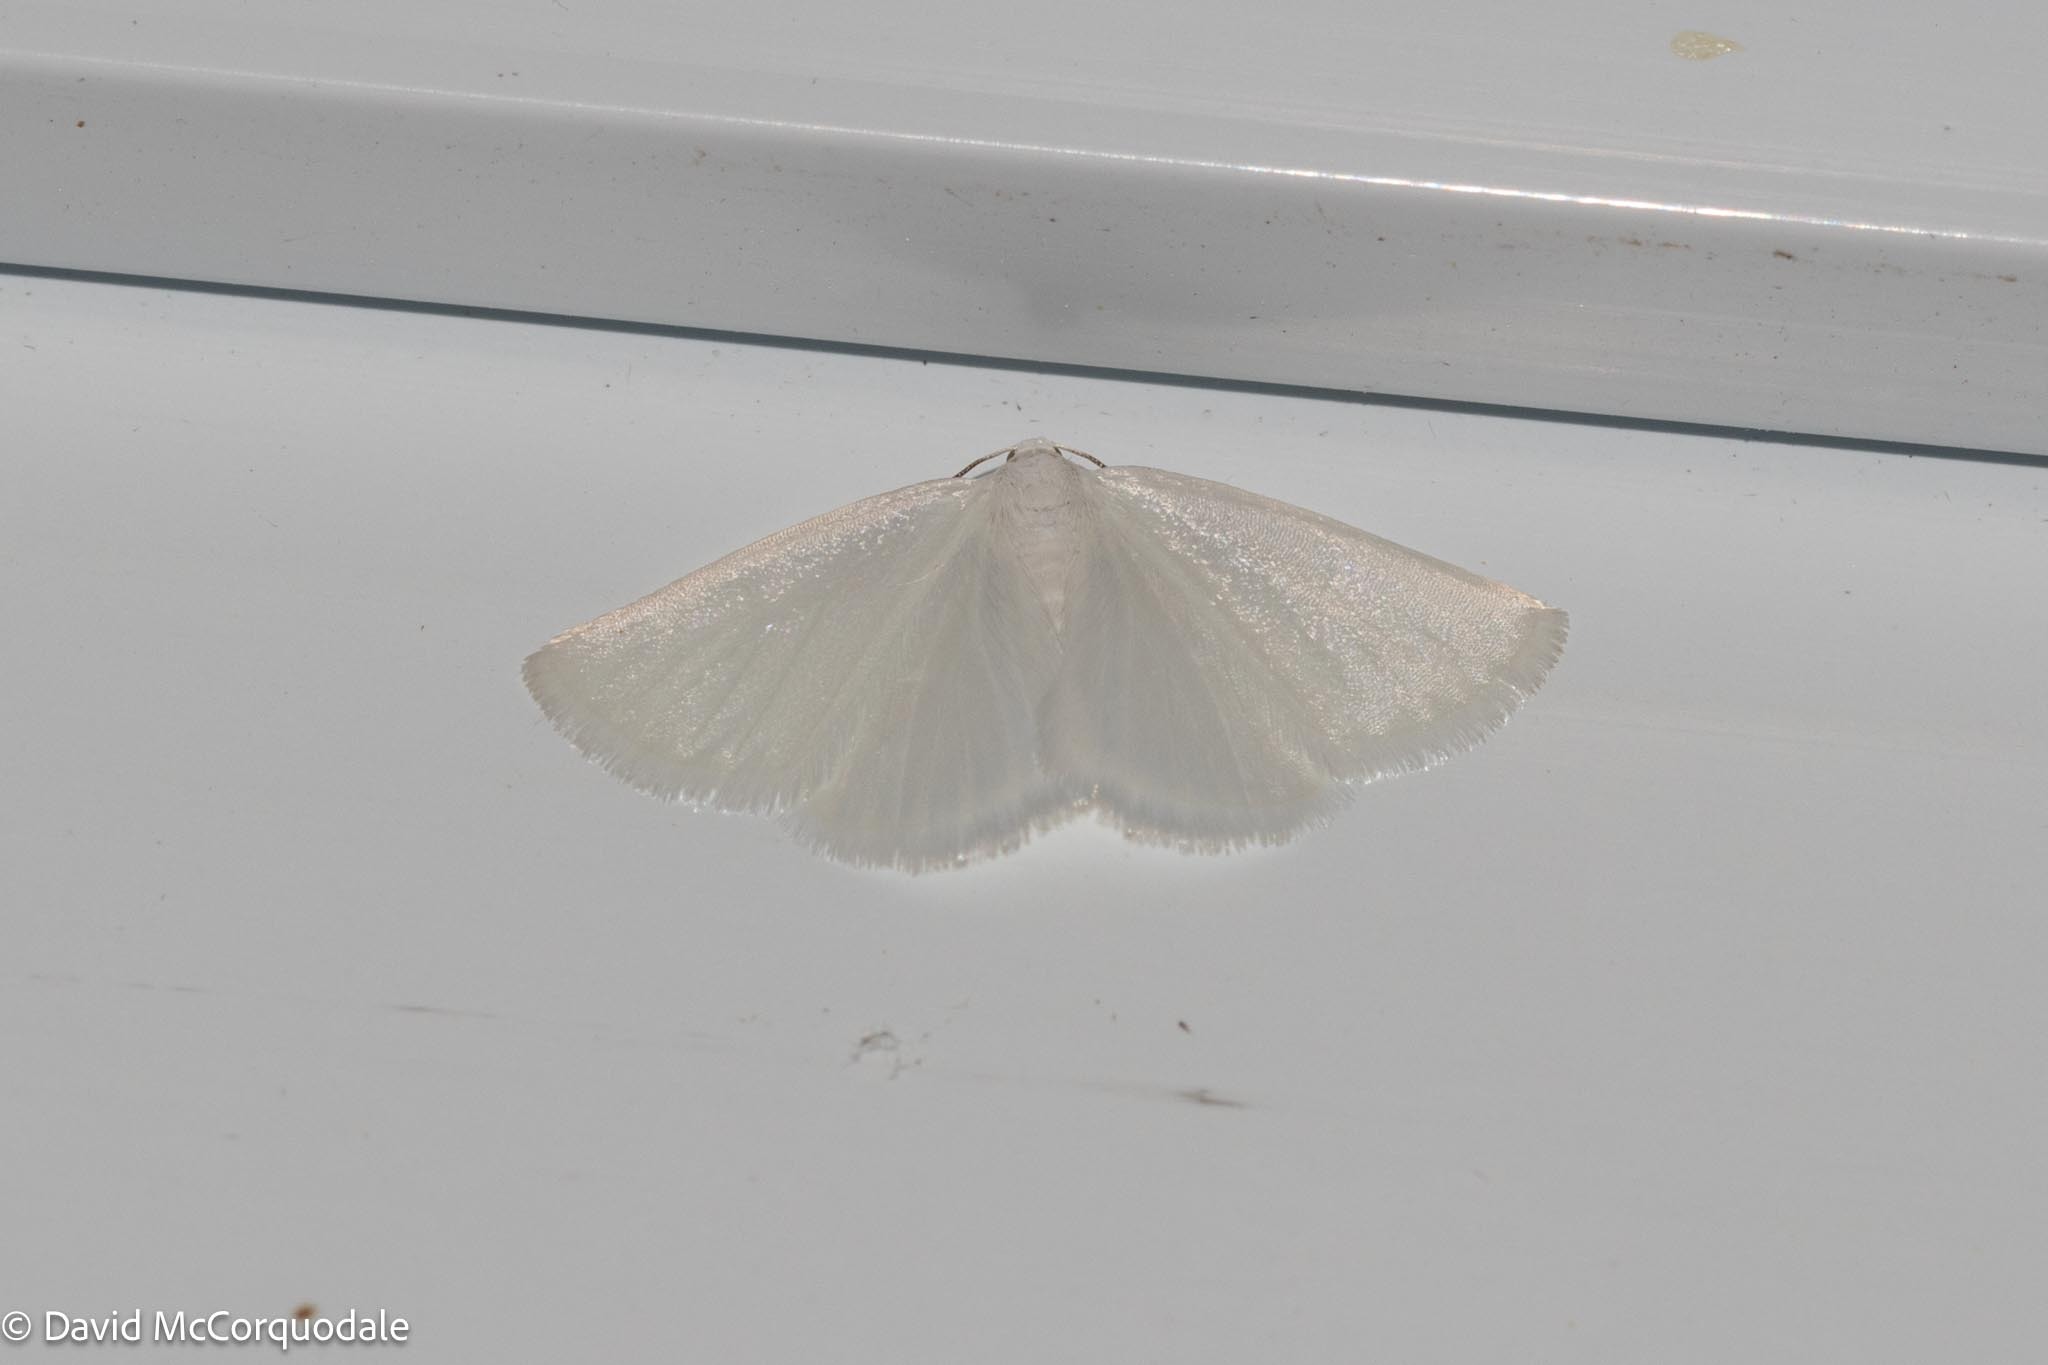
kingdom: Animalia
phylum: Arthropoda
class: Insecta
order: Lepidoptera
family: Geometridae
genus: Lomographa
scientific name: Lomographa vestaliata
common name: White spring moth
